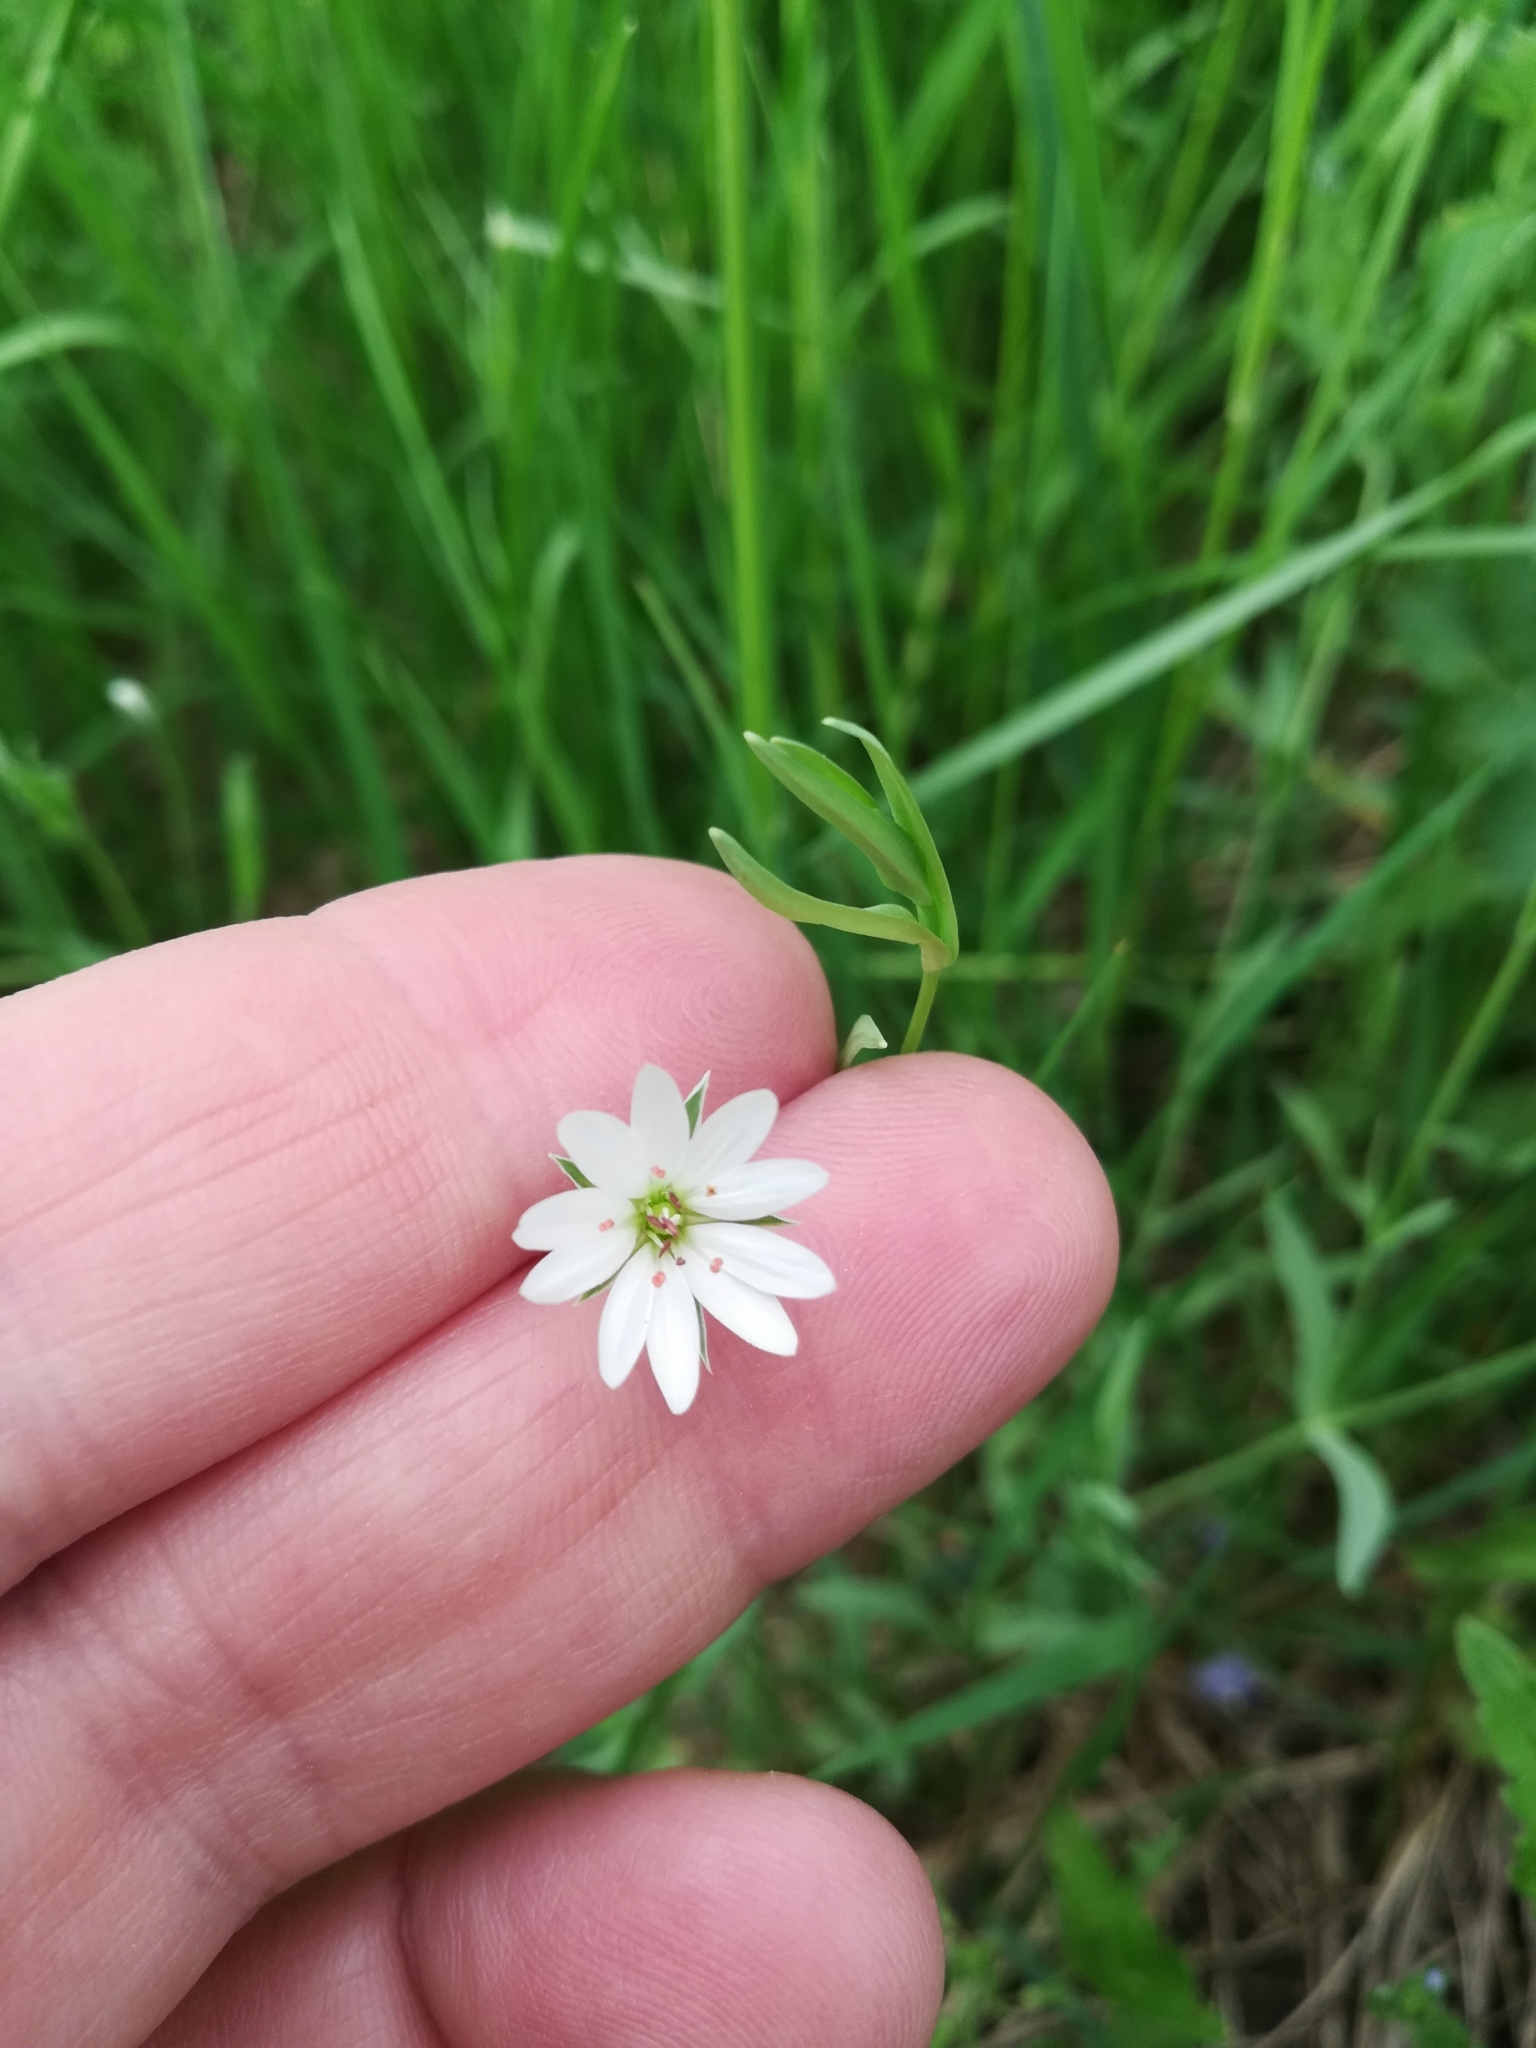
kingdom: Plantae
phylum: Tracheophyta
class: Magnoliopsida
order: Caryophyllales
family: Caryophyllaceae
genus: Stellaria
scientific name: Stellaria palustris
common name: Marsh stitchwort
